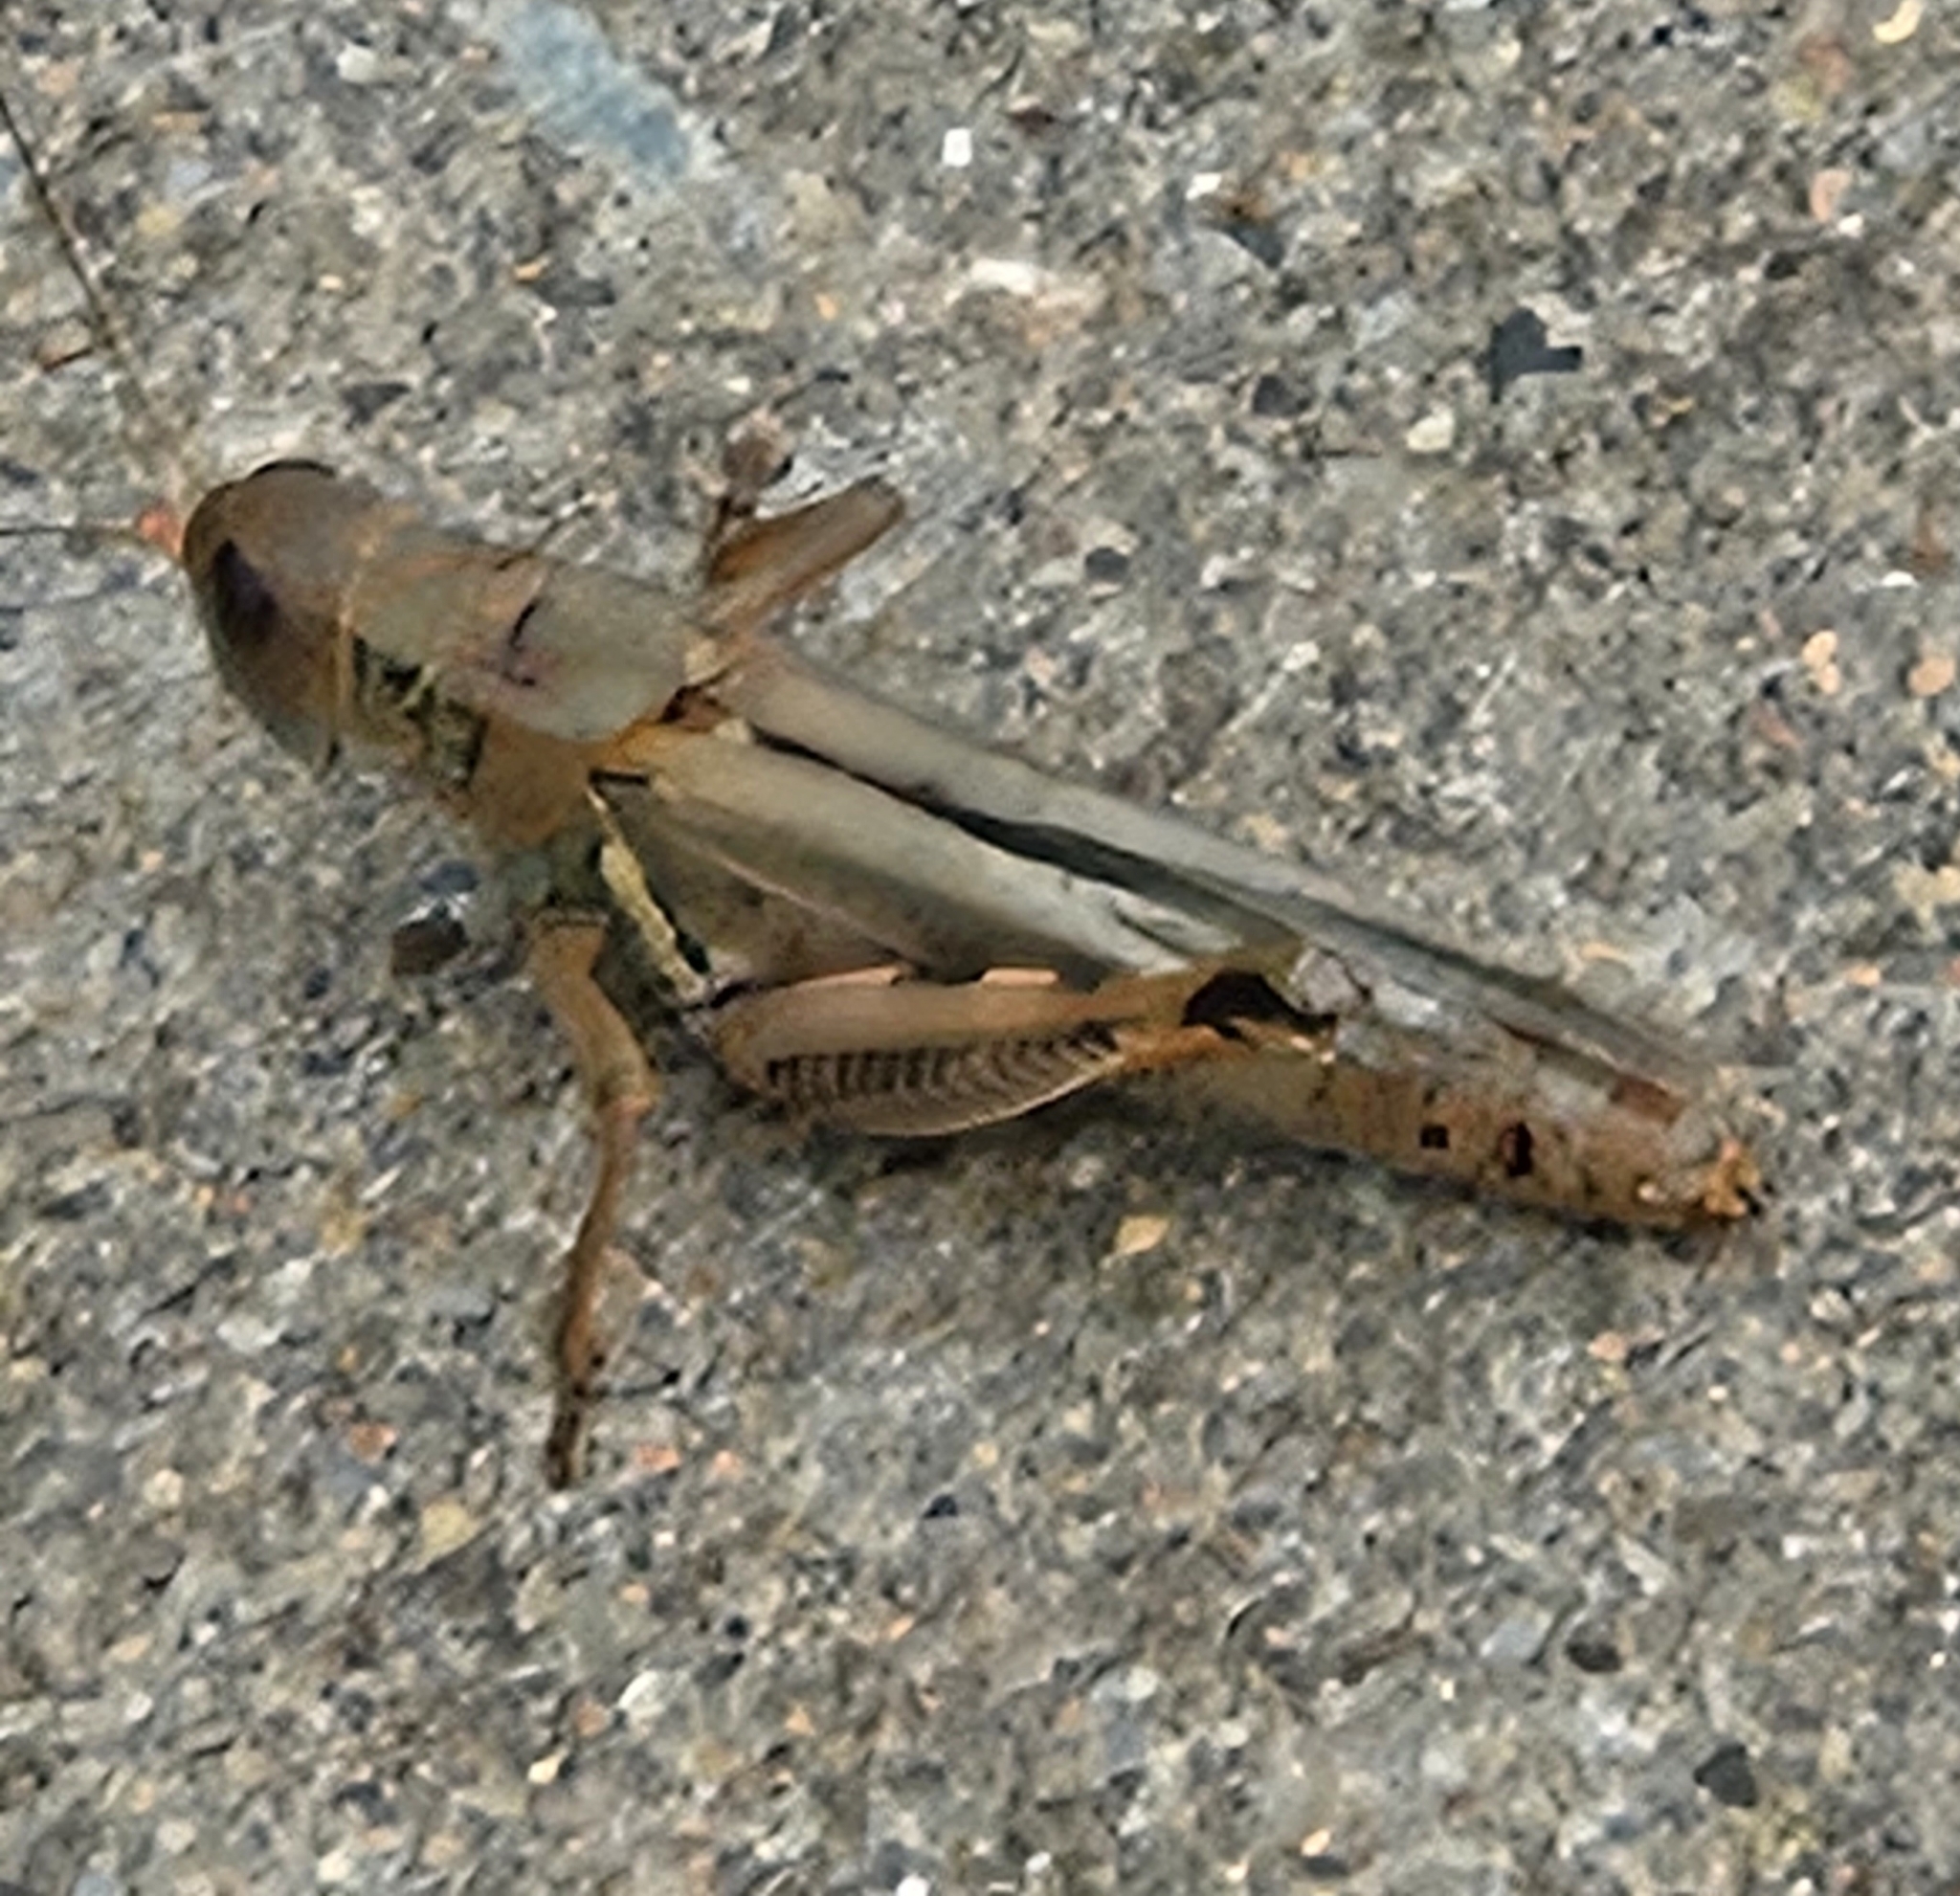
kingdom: Animalia
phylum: Arthropoda
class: Insecta
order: Orthoptera
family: Acrididae
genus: Melanoplus
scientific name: Melanoplus differentialis
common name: Differential grasshopper
